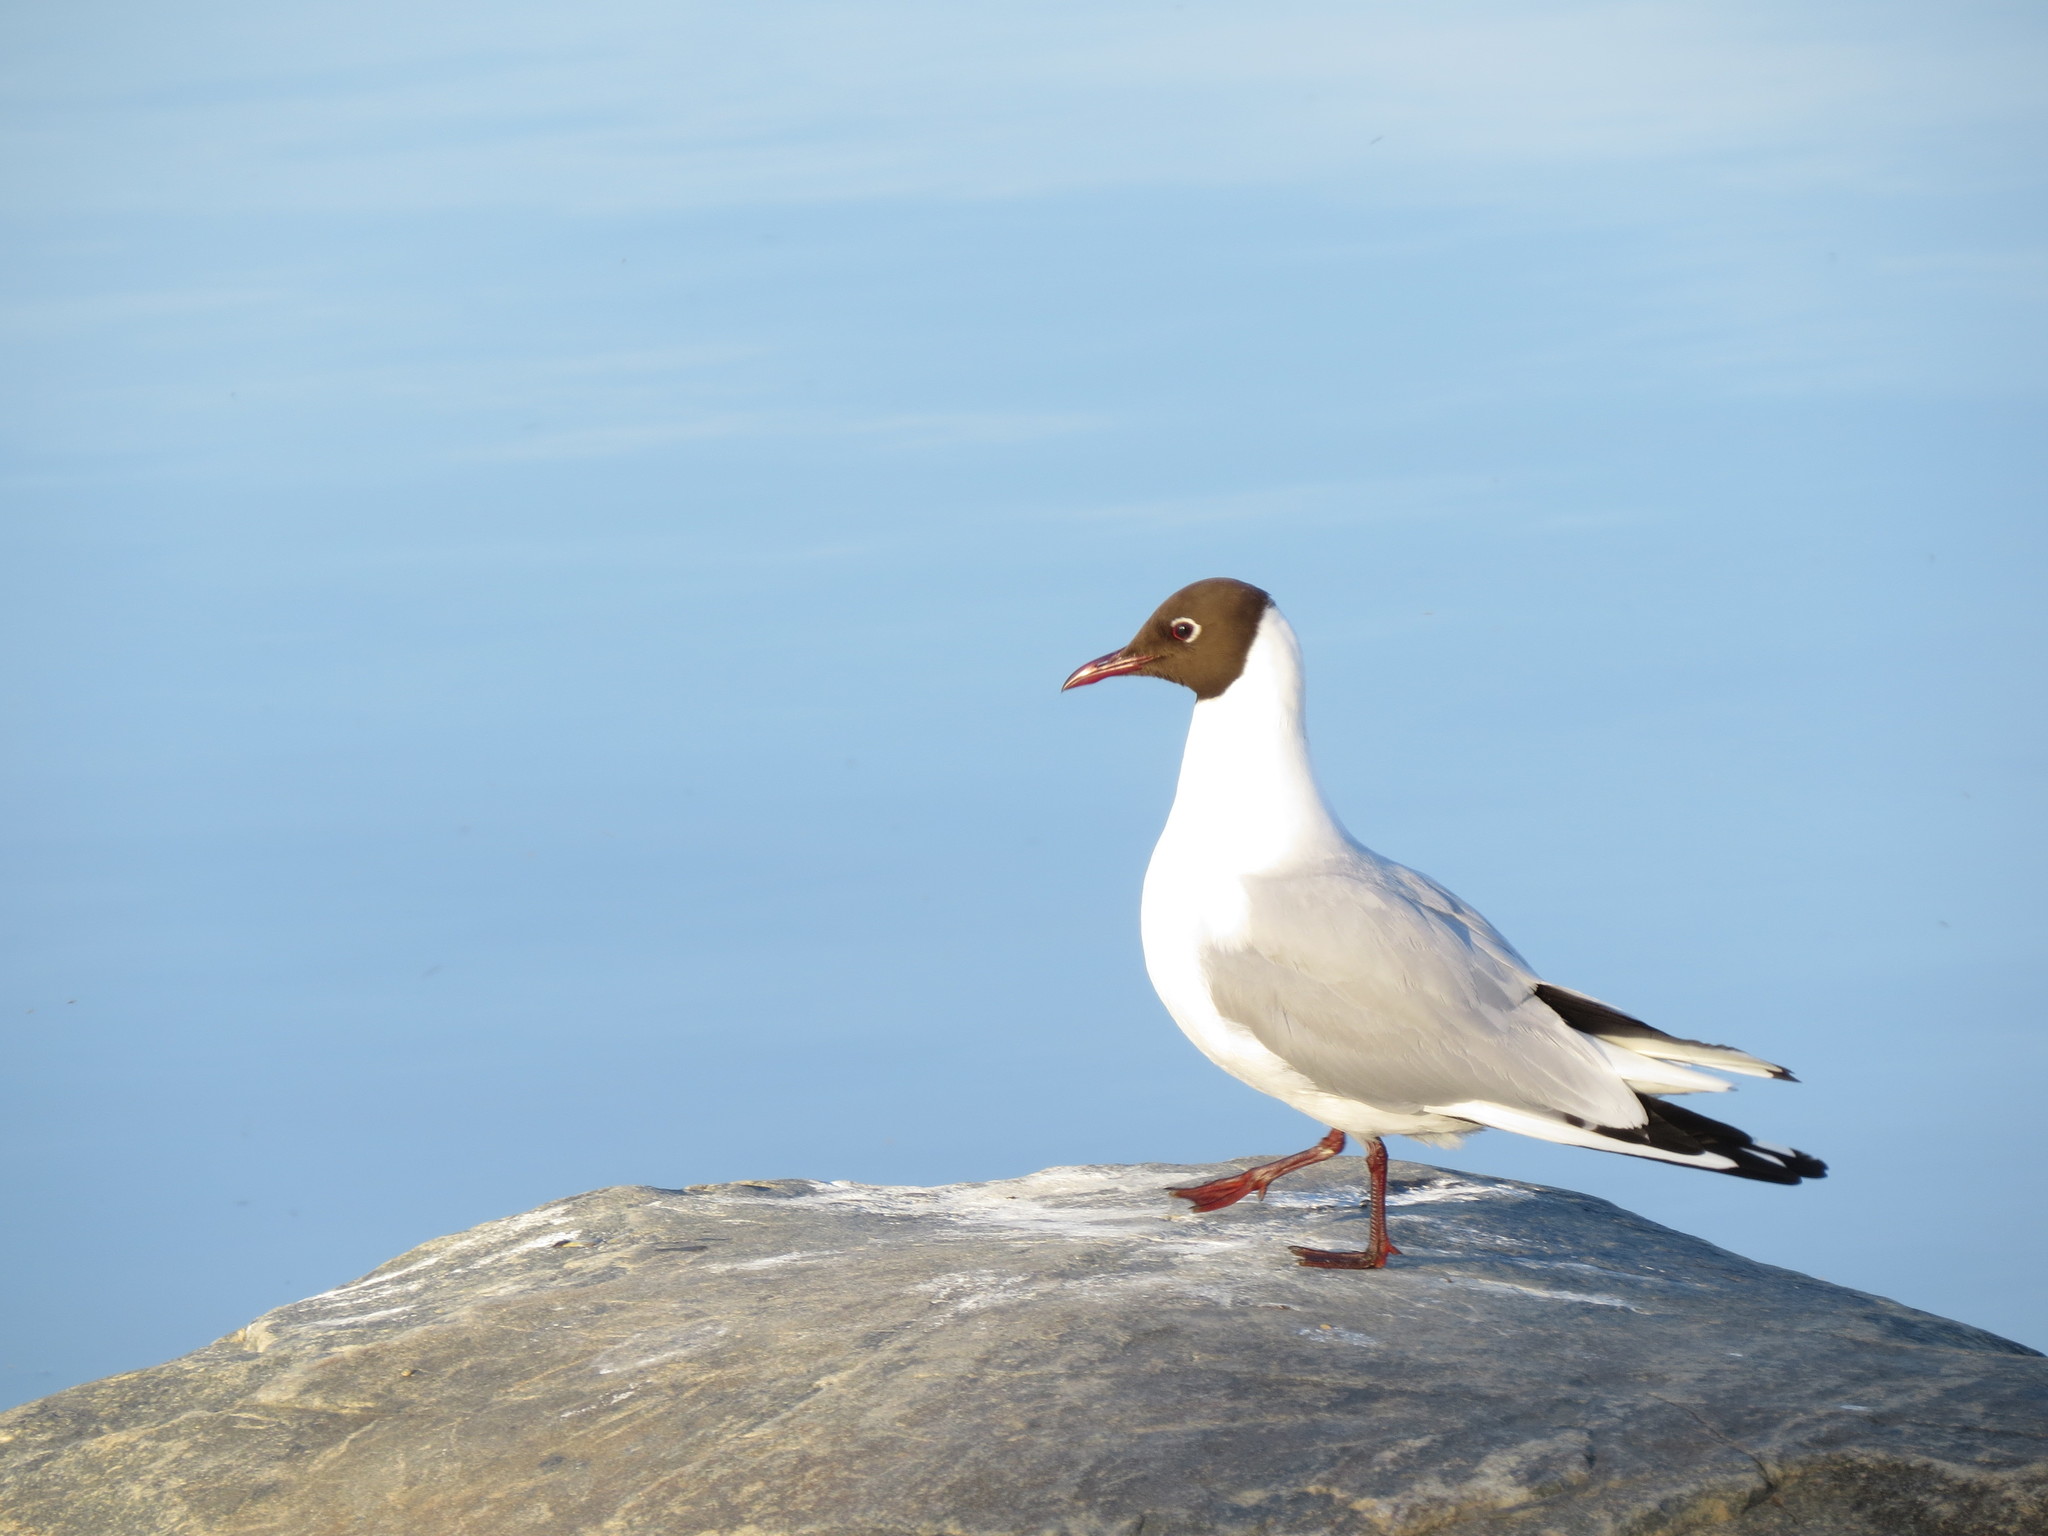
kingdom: Animalia
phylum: Chordata
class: Aves
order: Charadriiformes
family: Laridae
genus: Chroicocephalus
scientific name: Chroicocephalus ridibundus
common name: Black-headed gull
